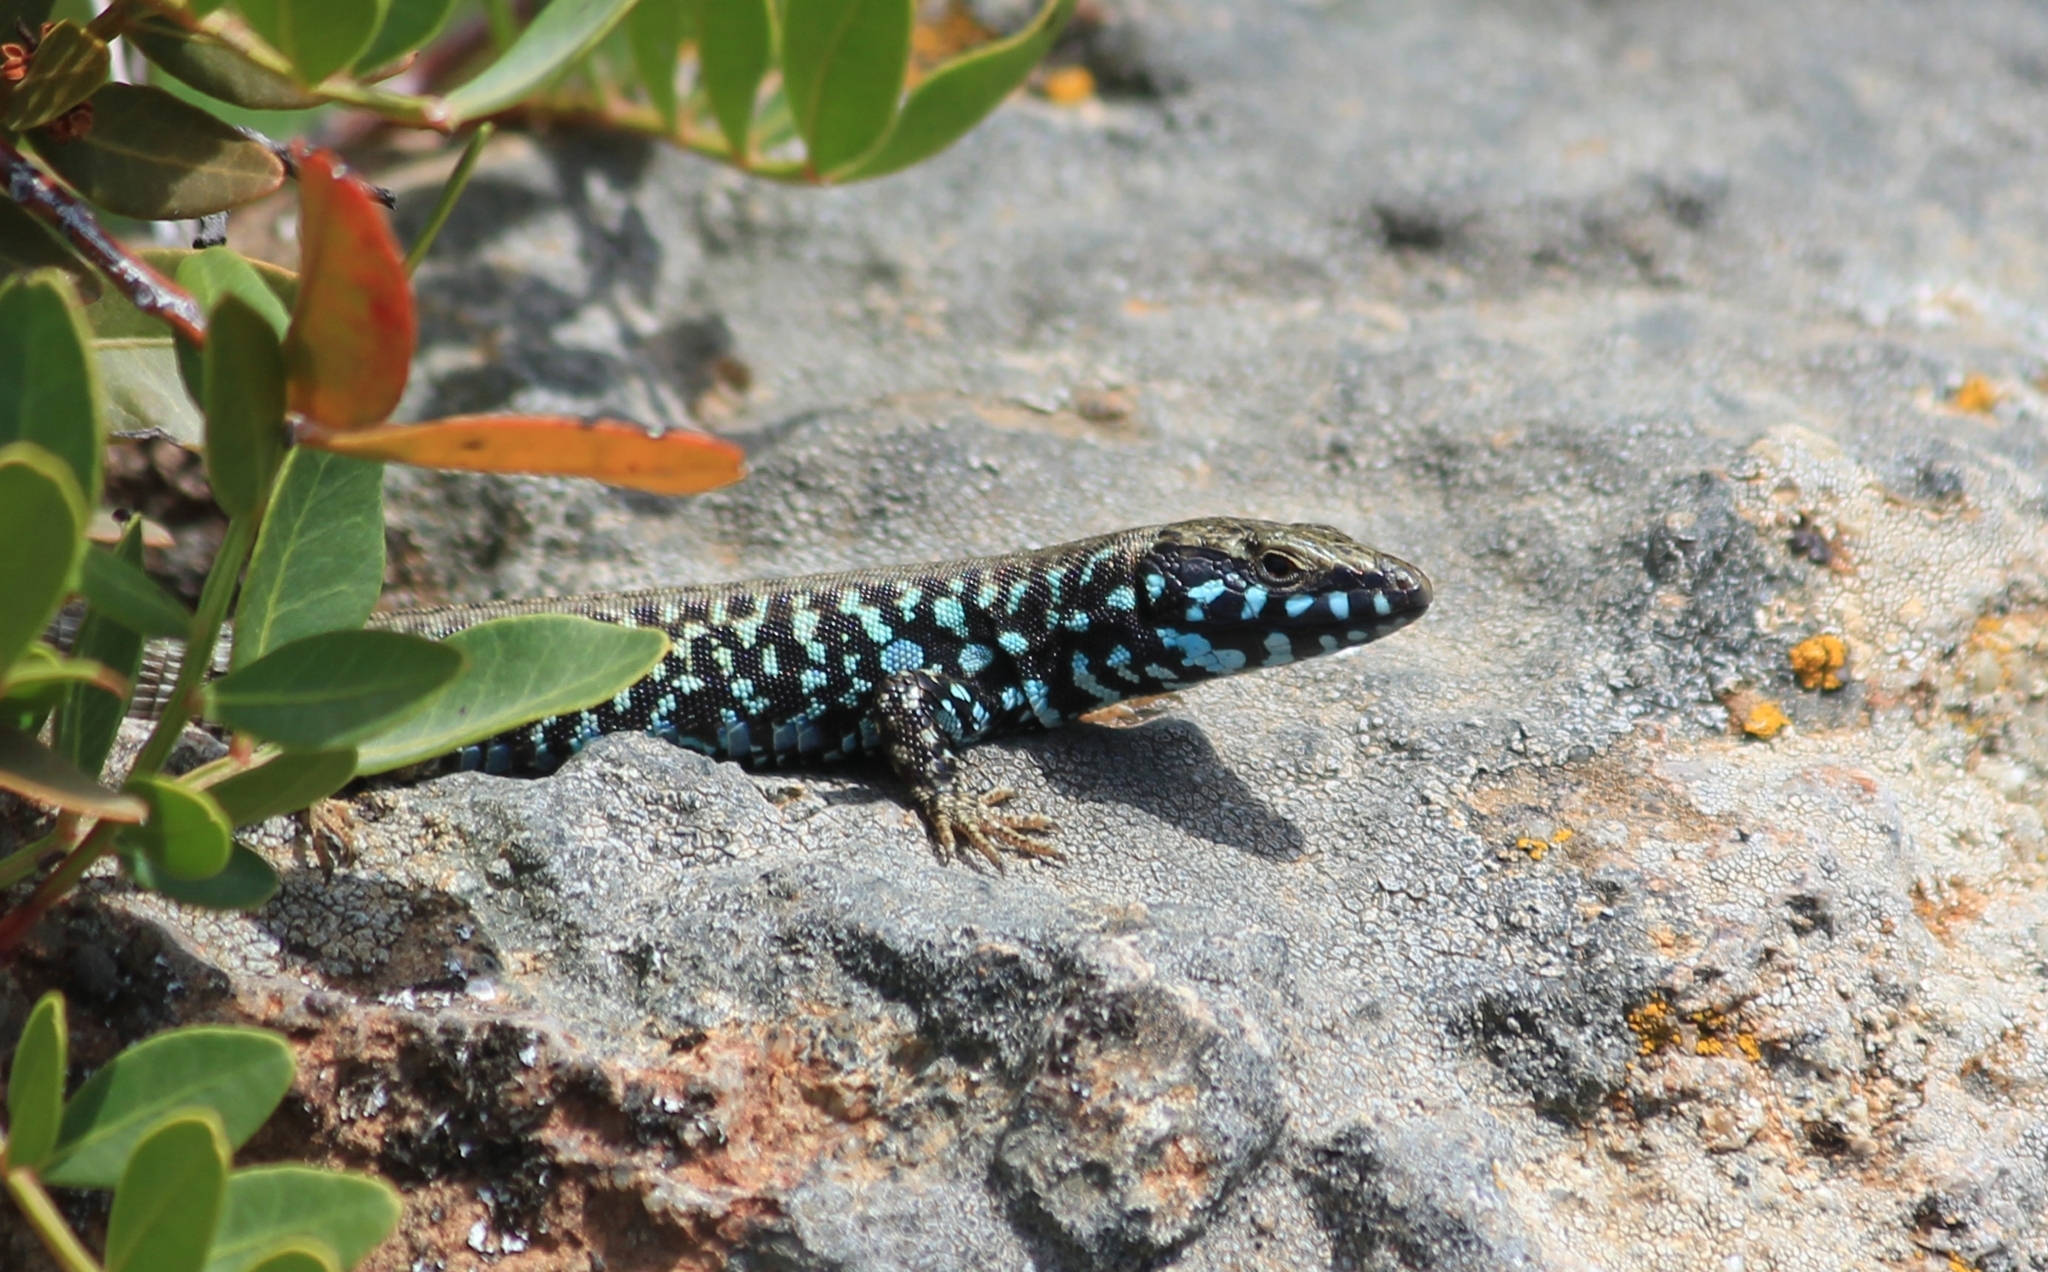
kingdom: Animalia
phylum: Chordata
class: Squamata
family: Lacertidae
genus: Podarcis
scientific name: Podarcis milensis
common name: Milos wall lizard
